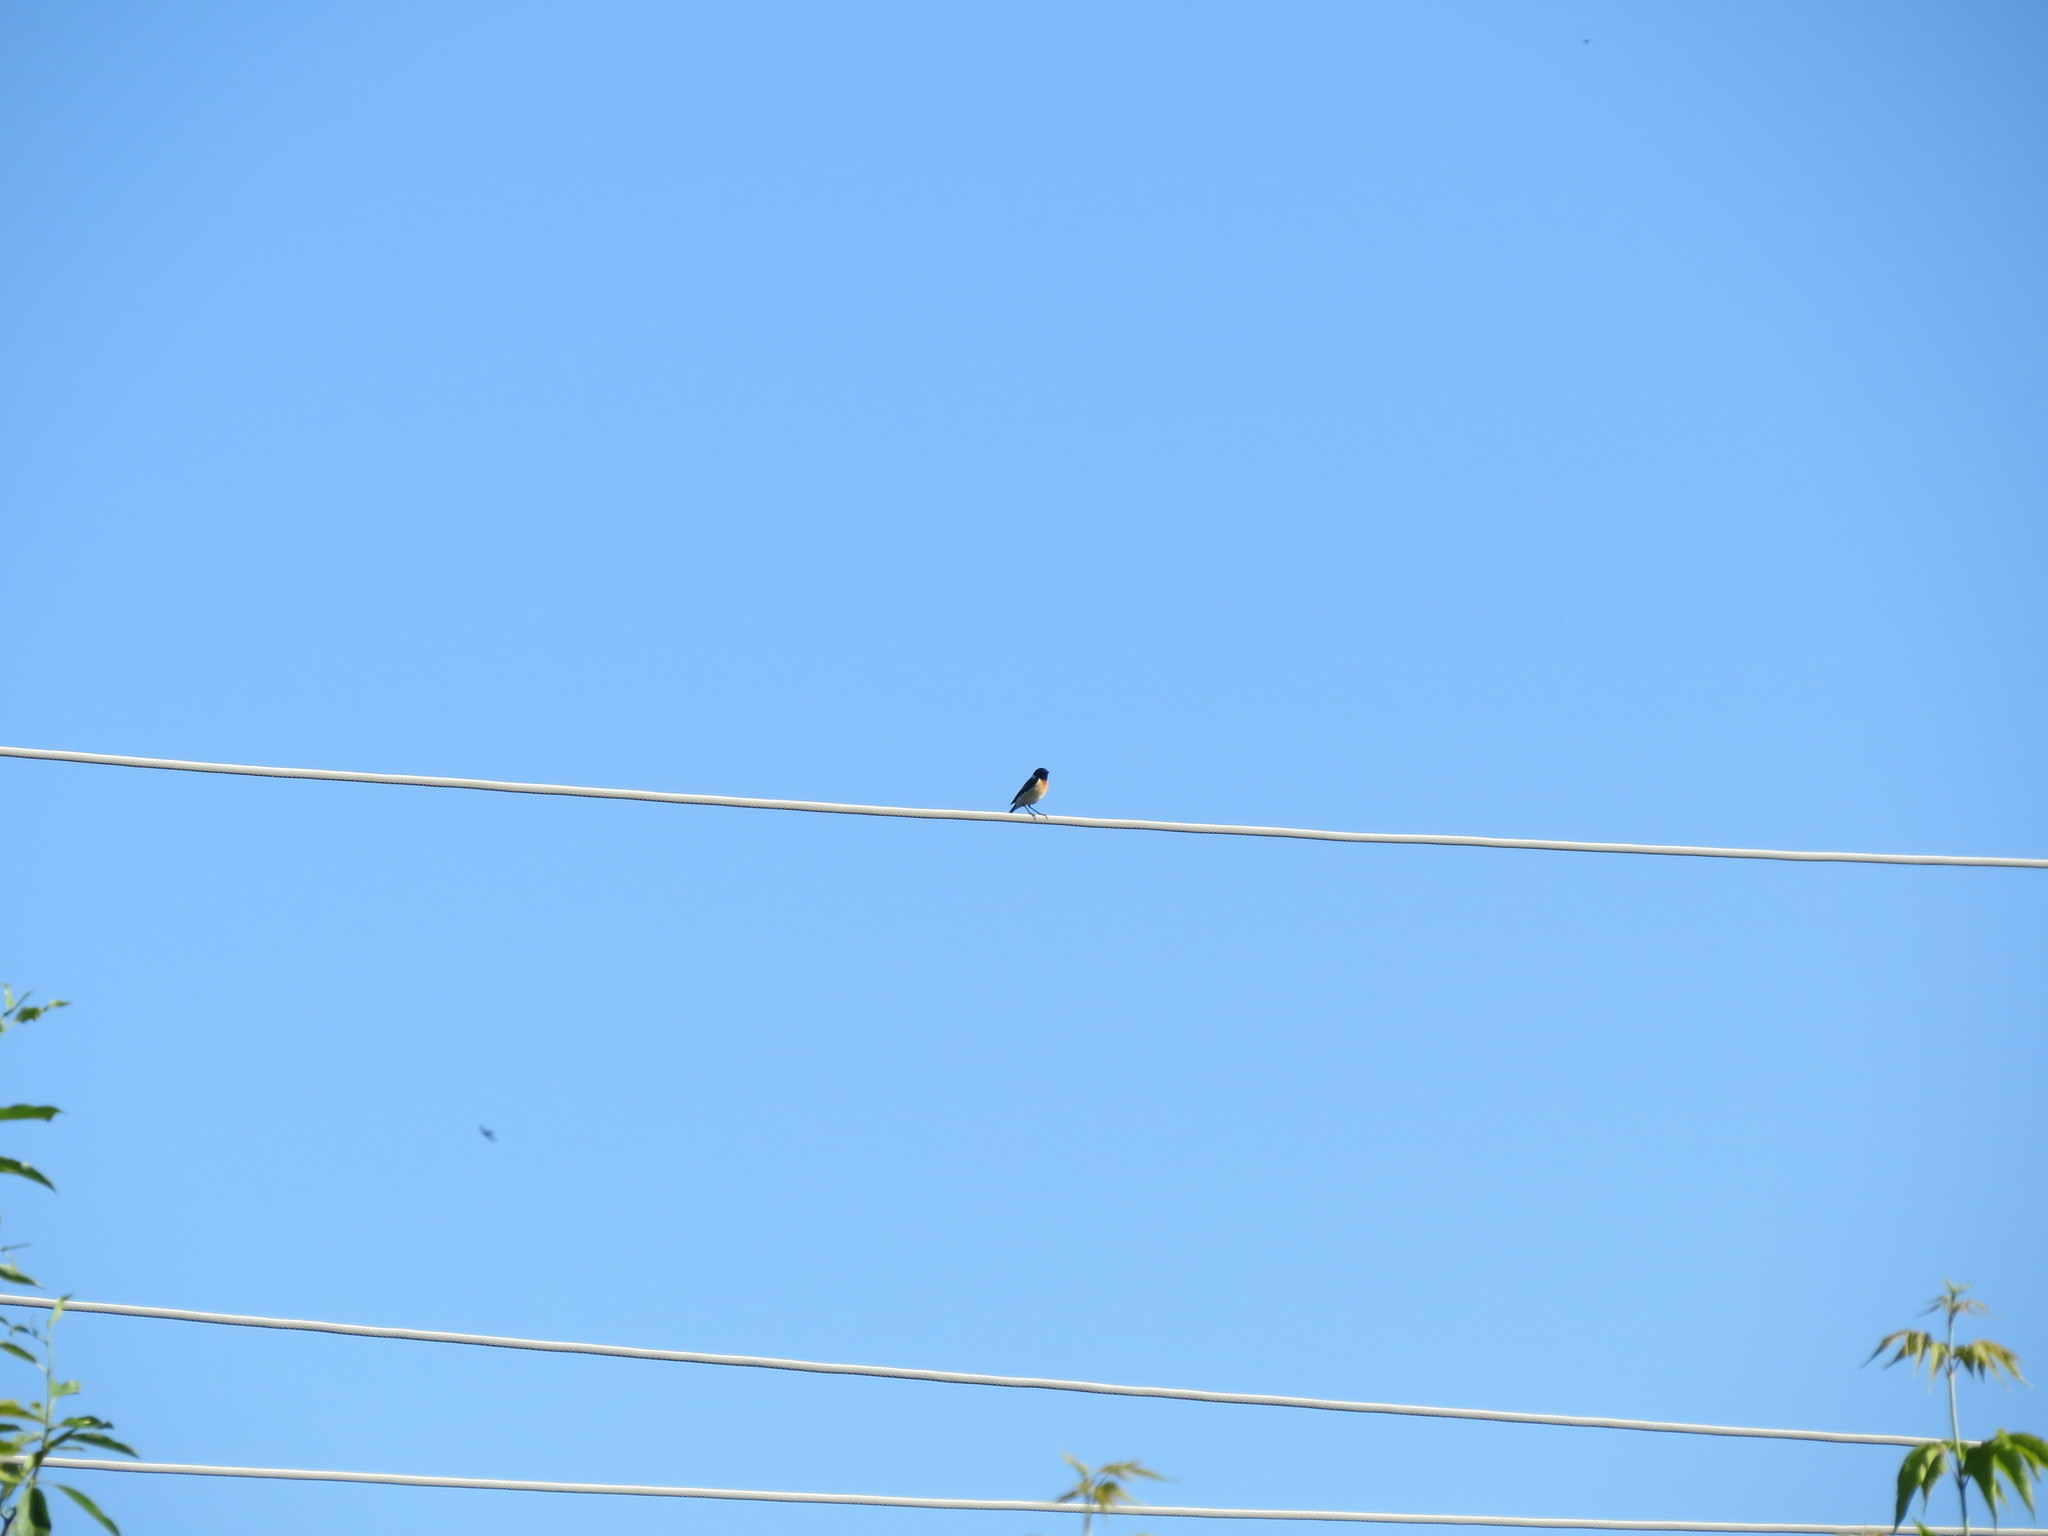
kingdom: Animalia
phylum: Chordata
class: Aves
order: Passeriformes
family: Muscicapidae
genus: Saxicola
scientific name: Saxicola maurus
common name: Siberian stonechat
